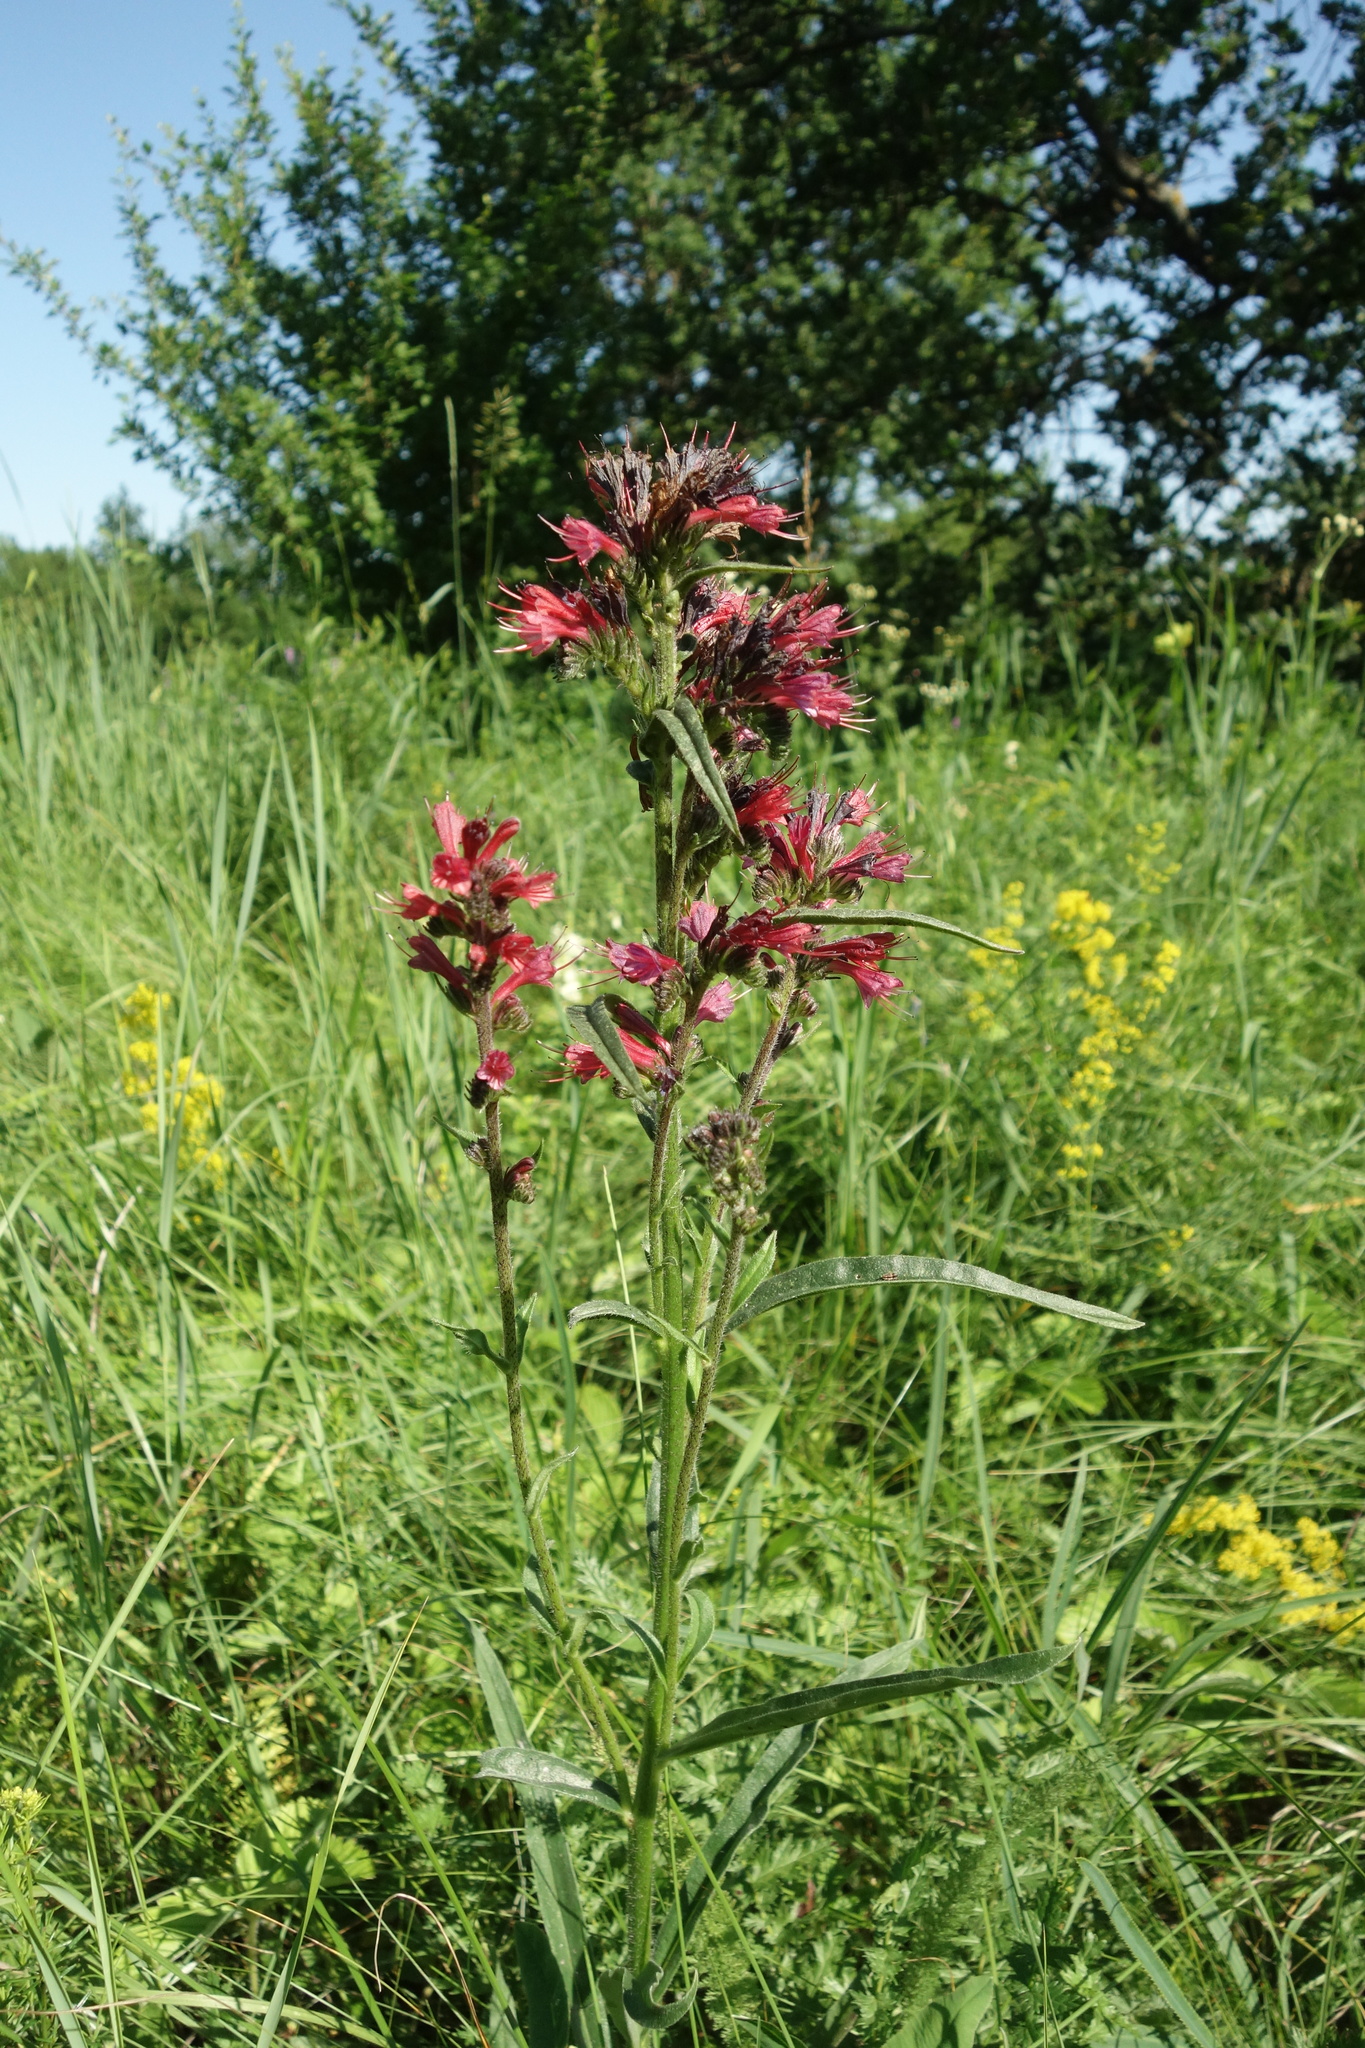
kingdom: Plantae
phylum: Tracheophyta
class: Magnoliopsida
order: Boraginales
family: Boraginaceae
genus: Pontechium
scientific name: Pontechium maculatum
